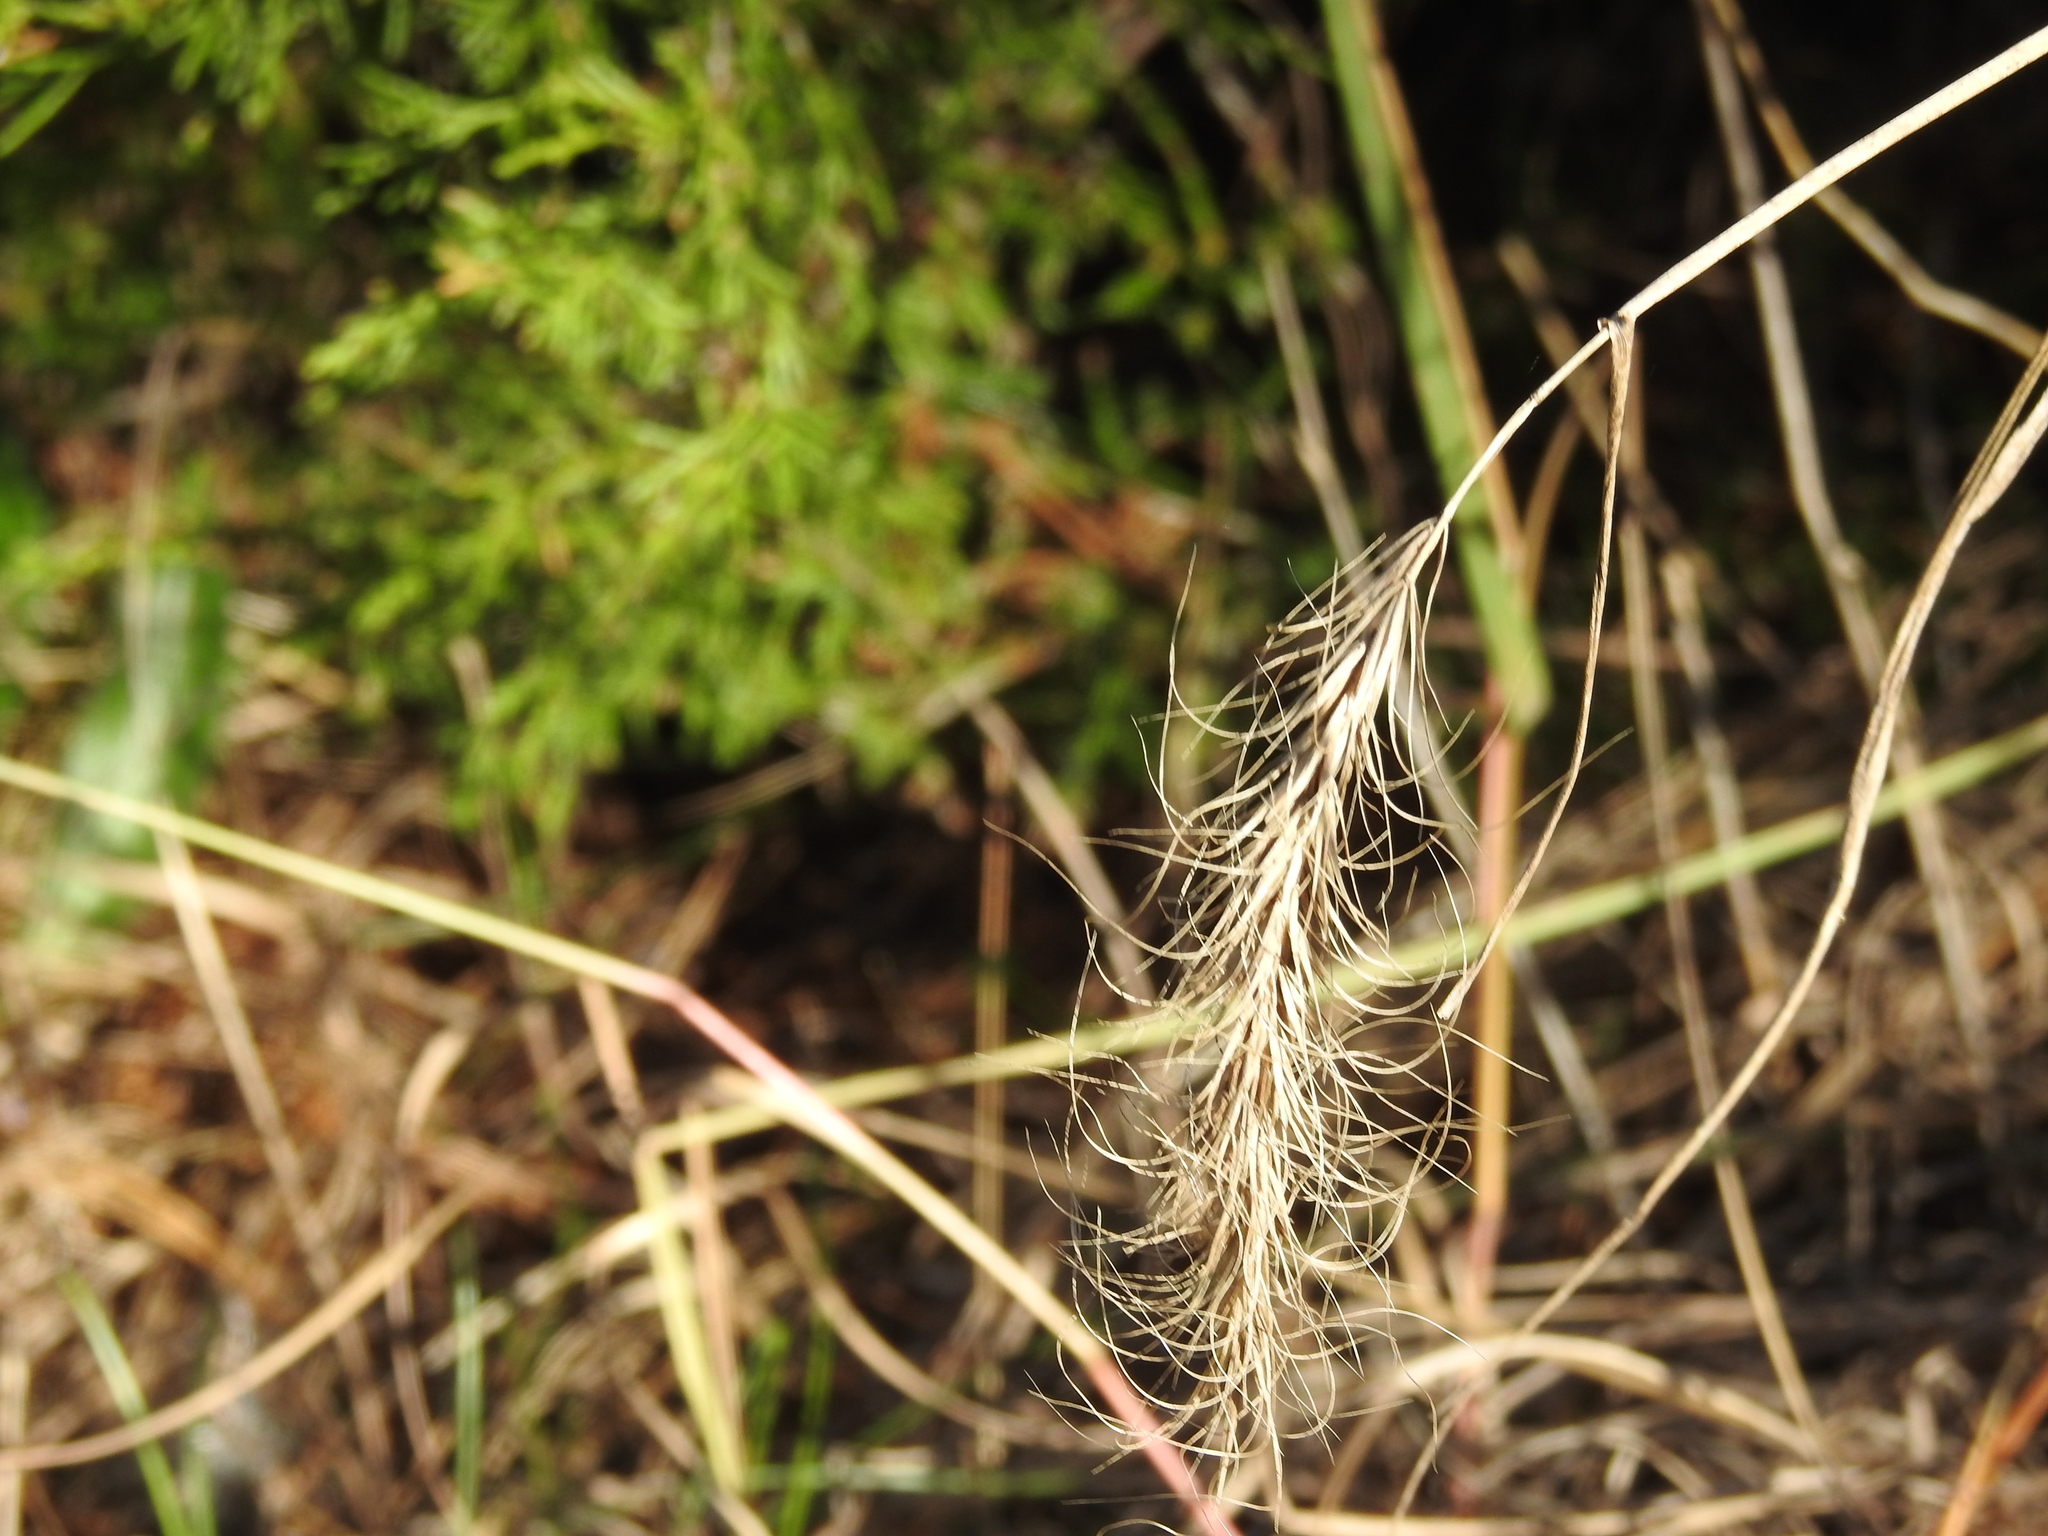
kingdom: Plantae
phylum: Tracheophyta
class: Liliopsida
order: Poales
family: Poaceae
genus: Elymus
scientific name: Elymus canadensis
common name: Canada wild rye
